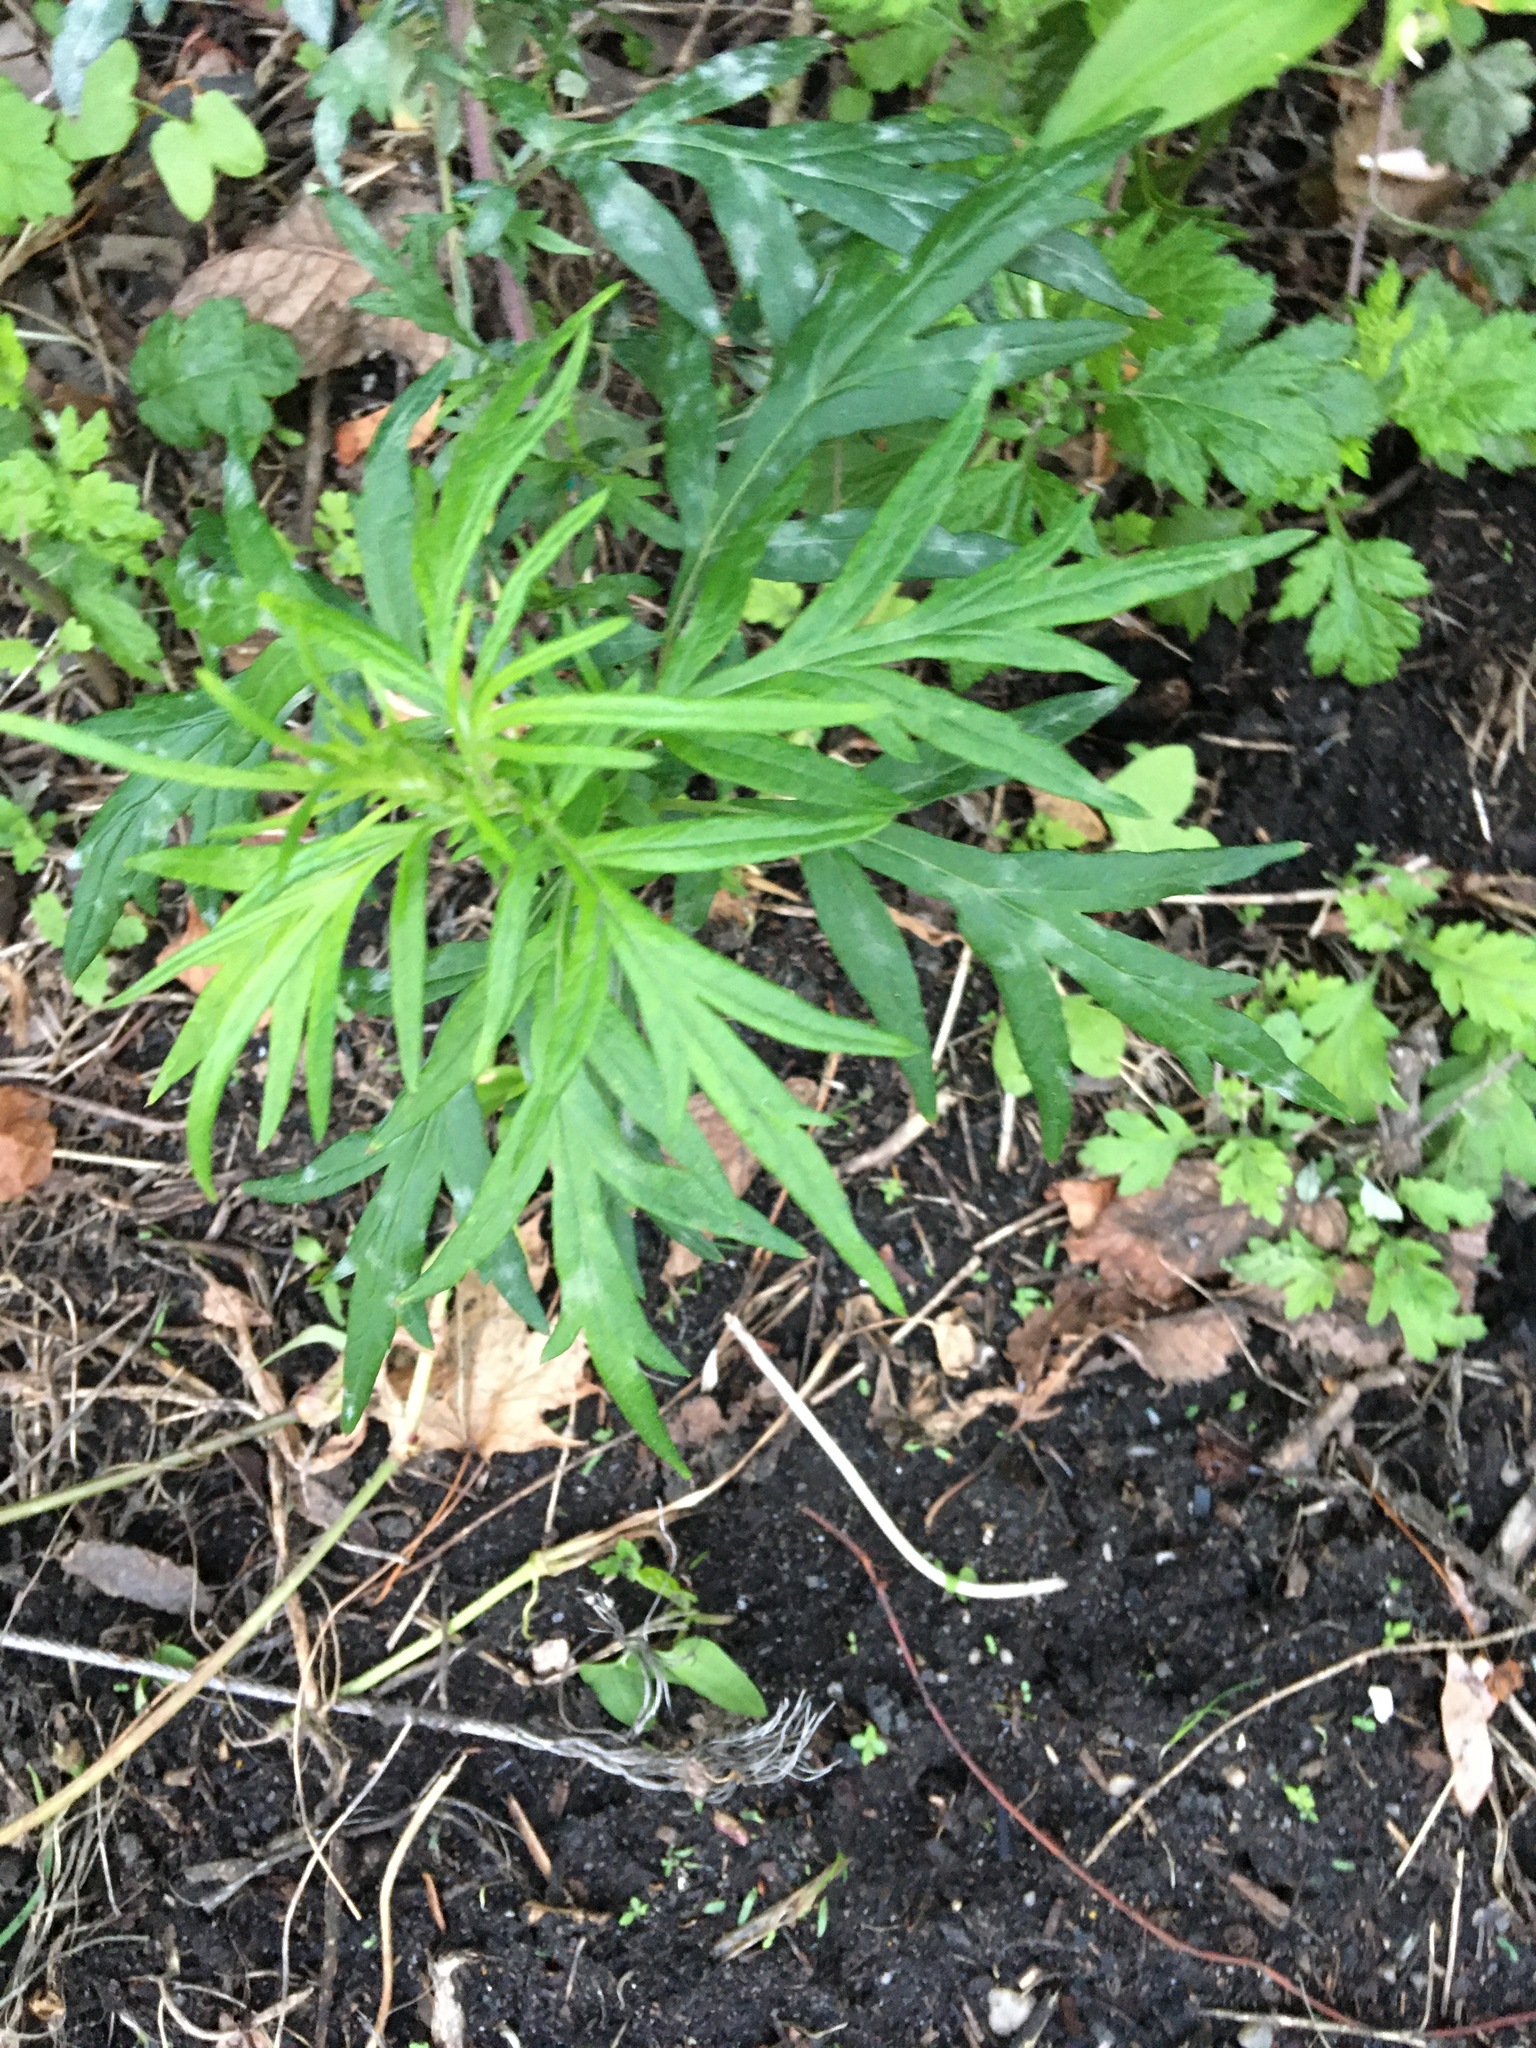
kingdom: Plantae
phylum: Tracheophyta
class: Magnoliopsida
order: Asterales
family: Asteraceae
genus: Artemisia
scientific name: Artemisia vulgaris
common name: Mugwort
